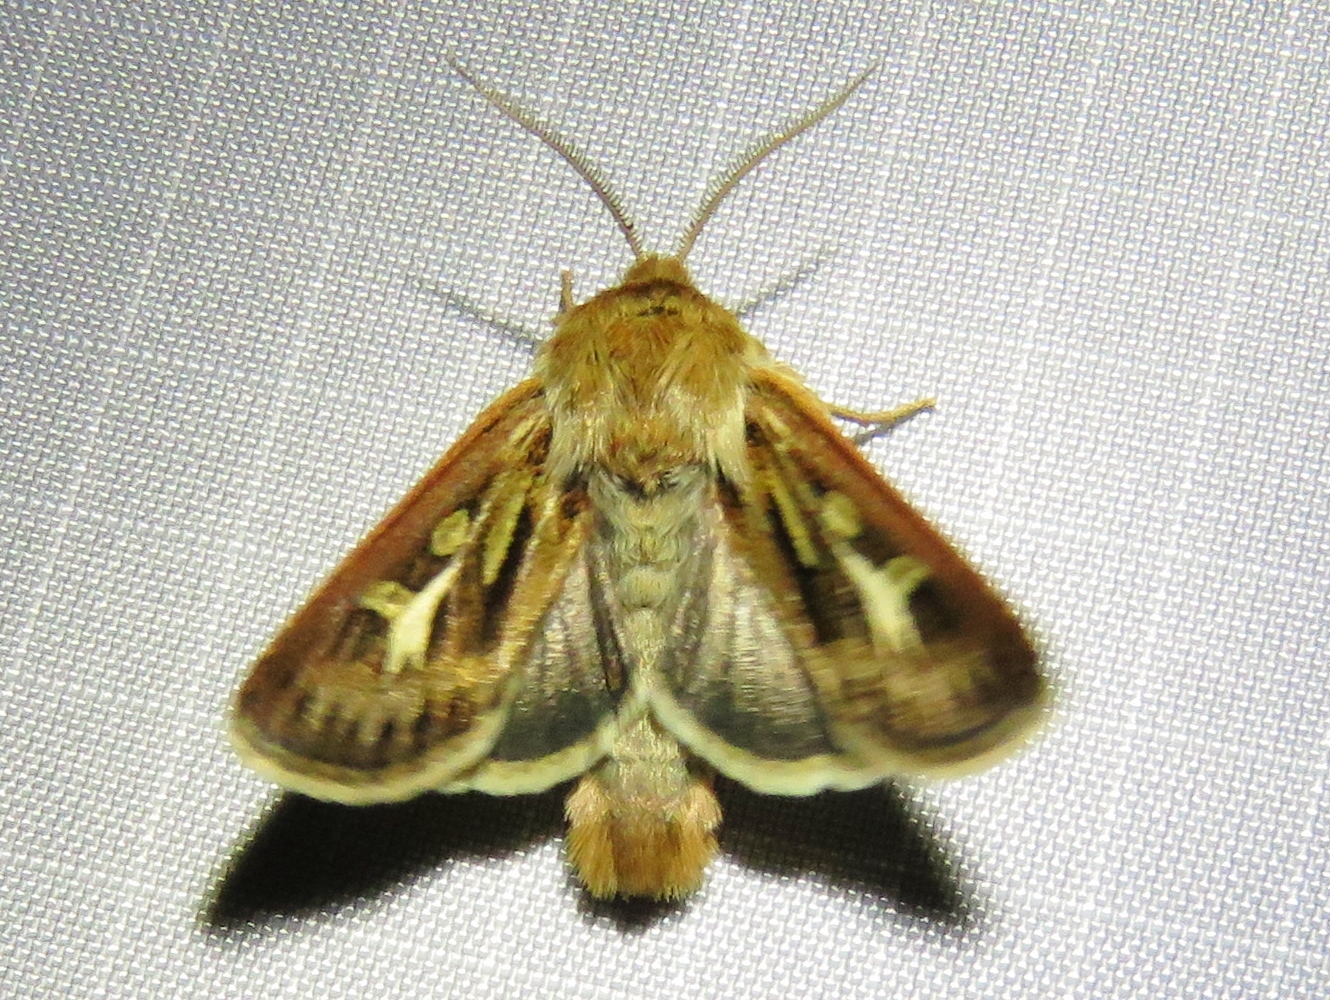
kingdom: Animalia
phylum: Arthropoda
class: Insecta
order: Lepidoptera
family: Noctuidae
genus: Cerapteryx
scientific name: Cerapteryx graminis
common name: Antler moth
